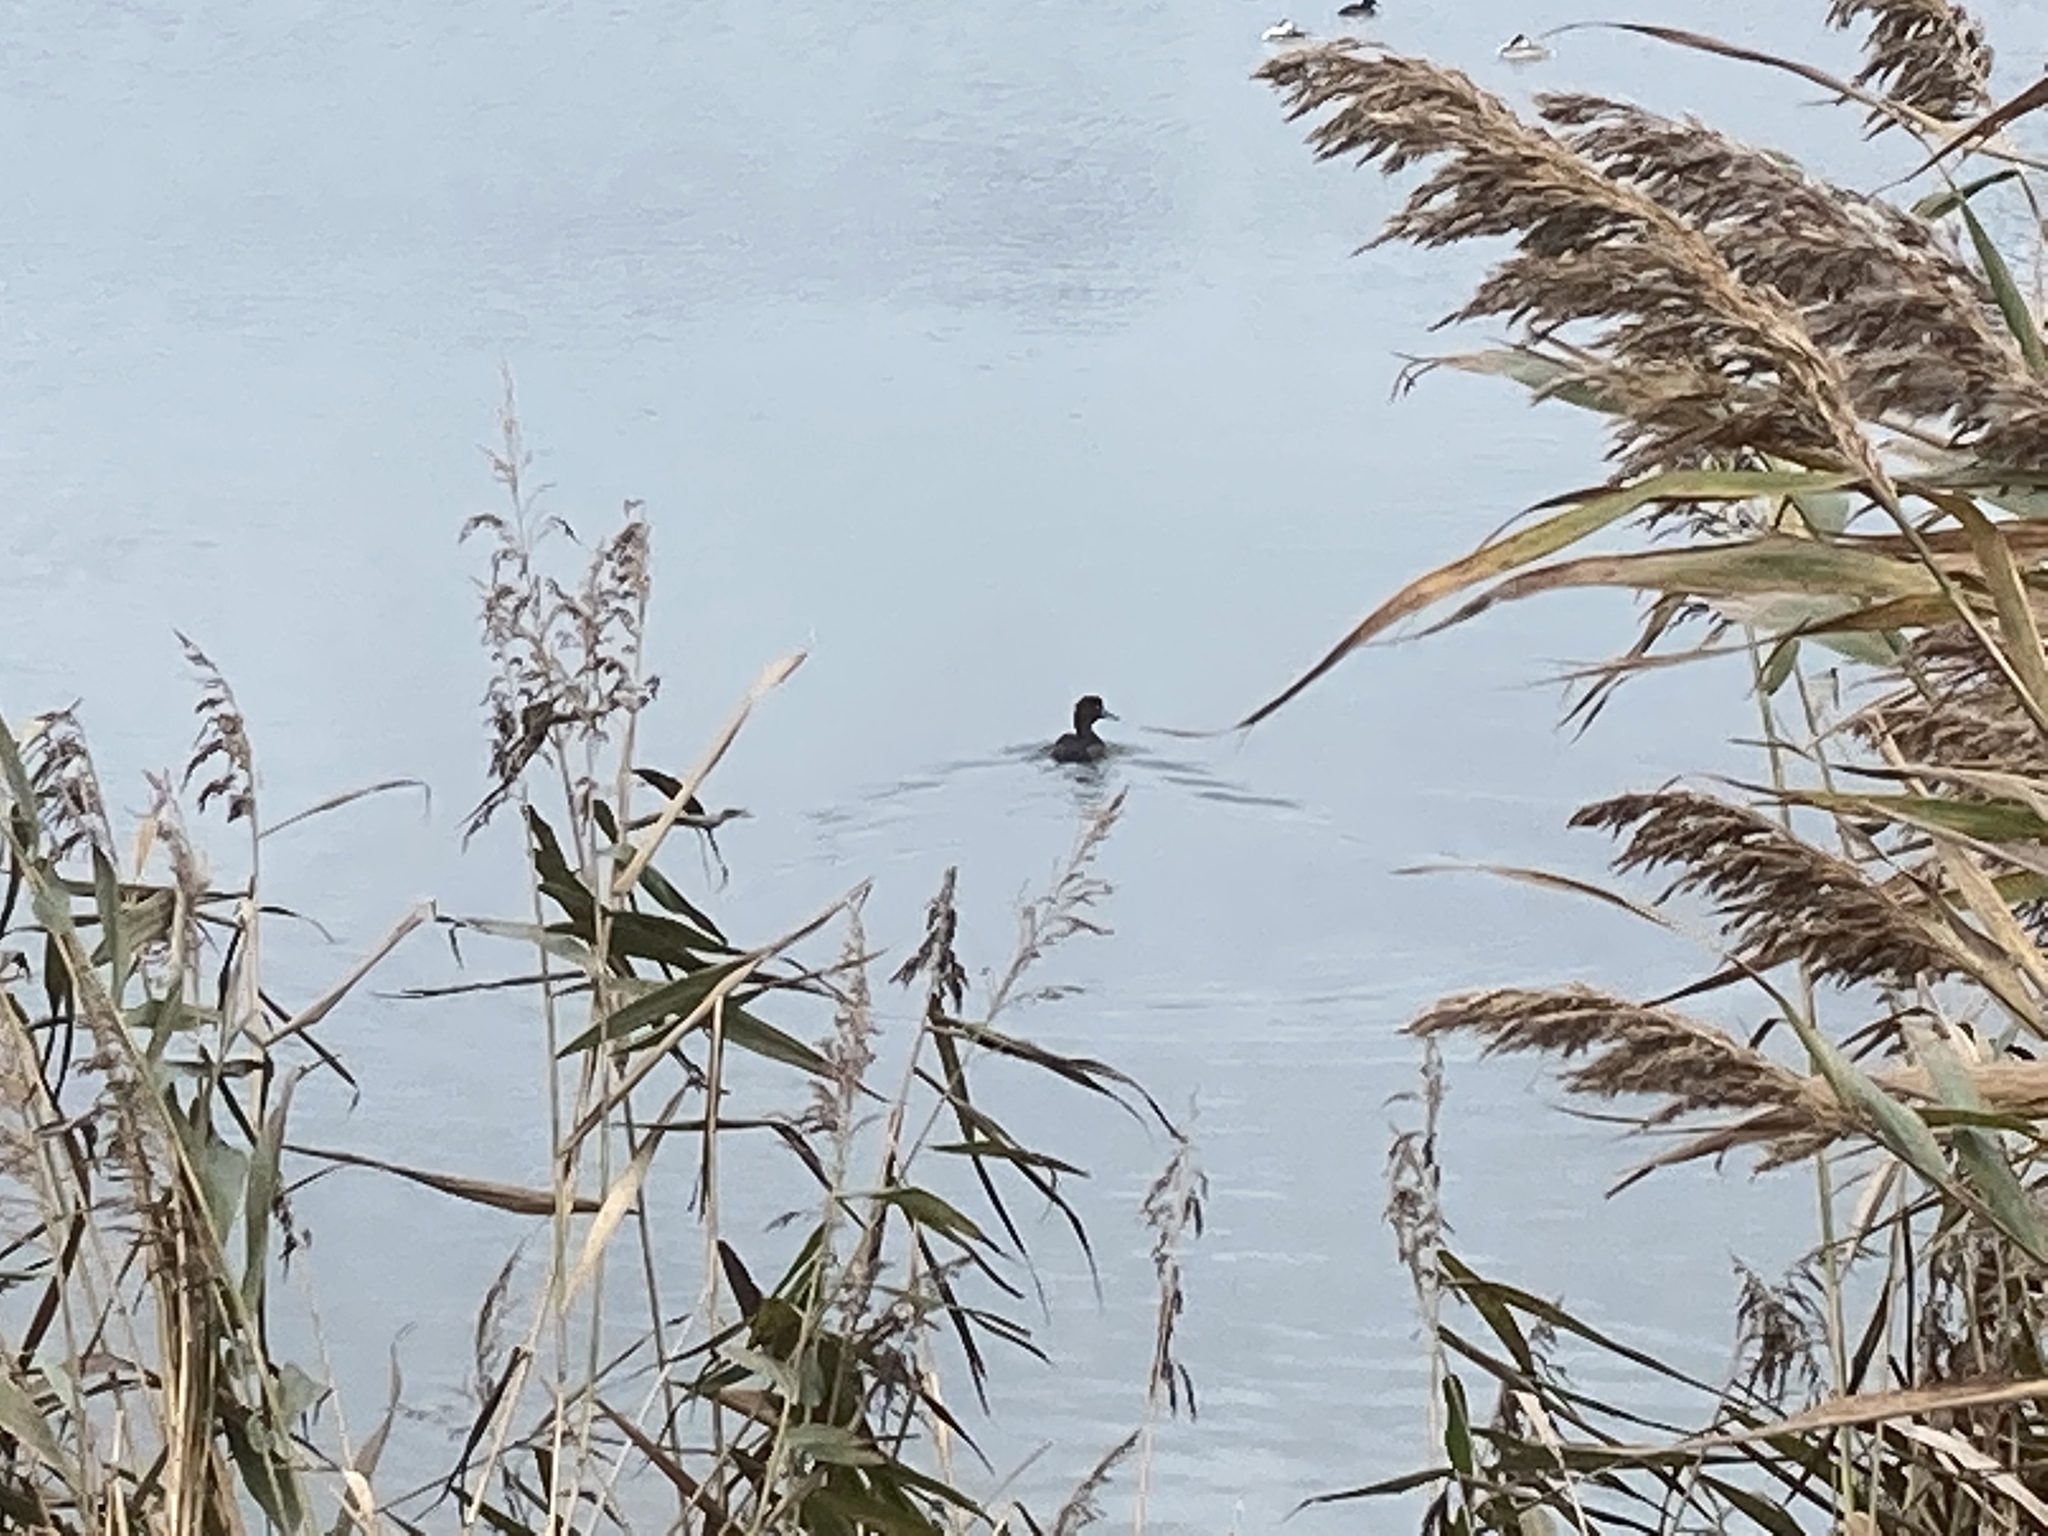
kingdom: Animalia
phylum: Chordata
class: Aves
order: Anseriformes
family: Anatidae
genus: Aythya
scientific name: Aythya fuligula
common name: Tufted duck
